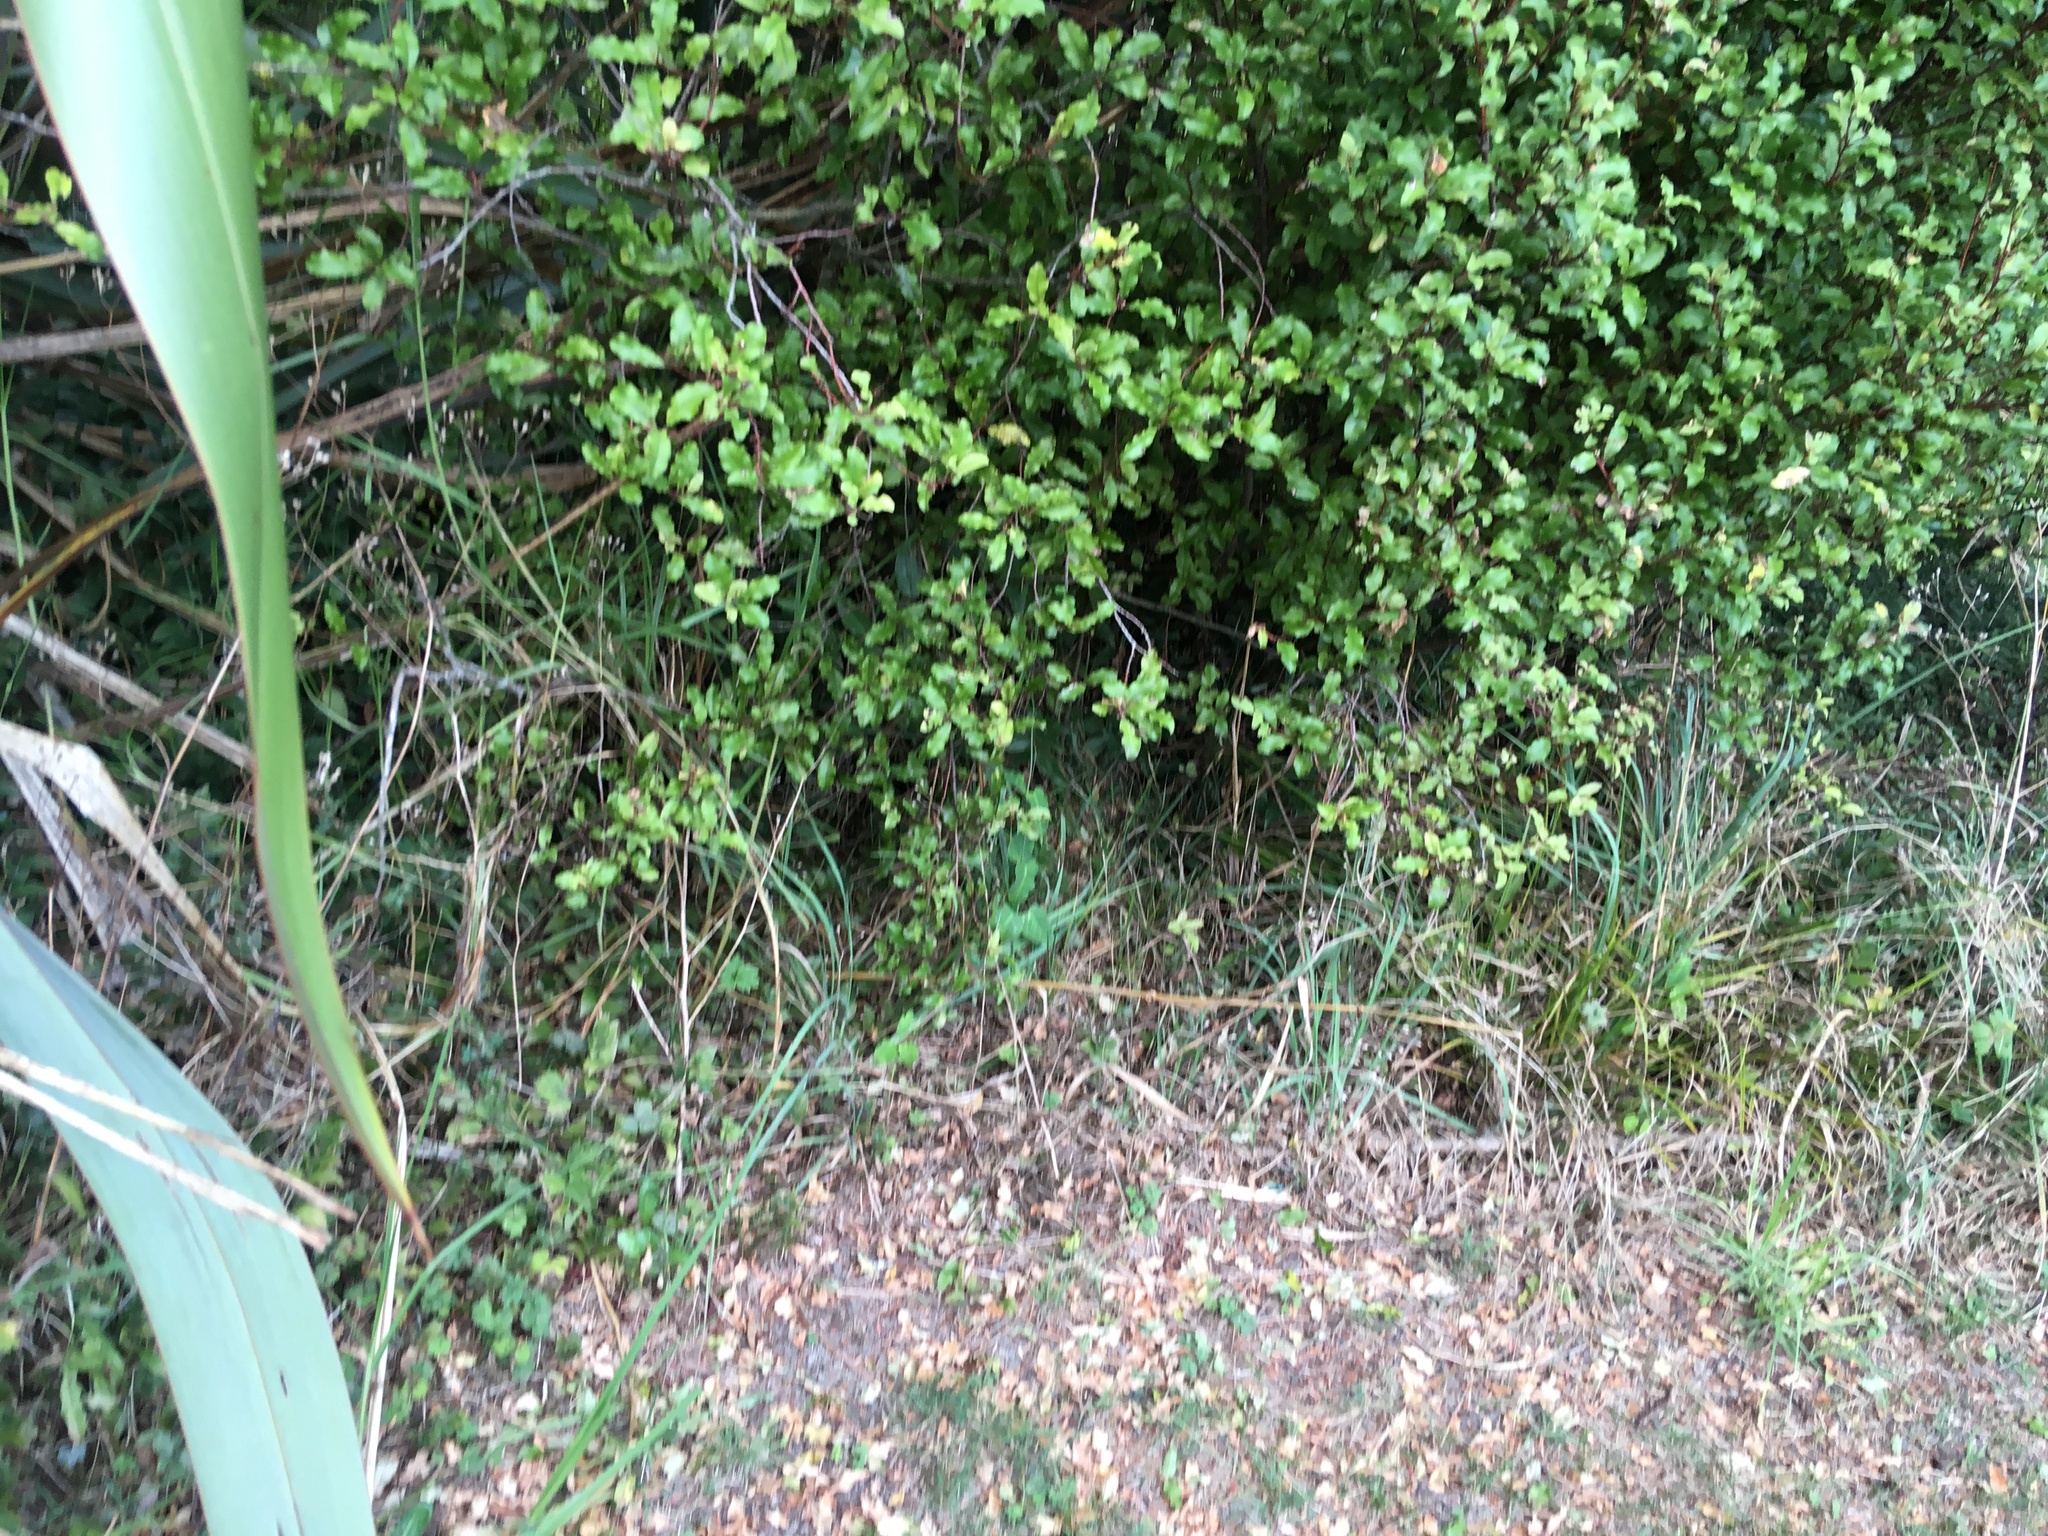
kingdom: Plantae
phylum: Tracheophyta
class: Magnoliopsida
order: Gentianales
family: Apocynaceae
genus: Araujia
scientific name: Araujia sericifera
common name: White bladderflower
